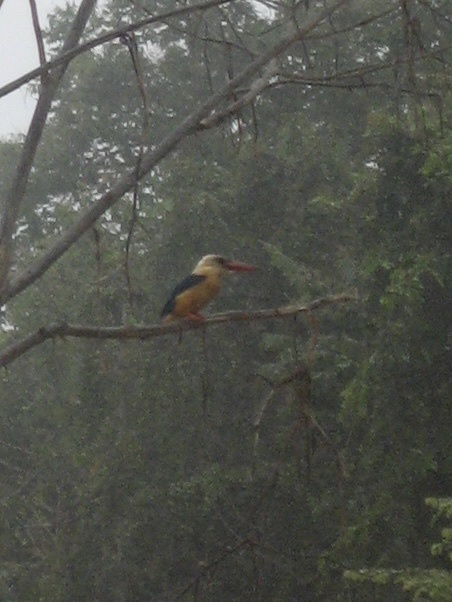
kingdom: Animalia
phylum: Chordata
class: Aves
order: Coraciiformes
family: Alcedinidae
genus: Pelargopsis
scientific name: Pelargopsis capensis
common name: Stork-billed kingfisher
